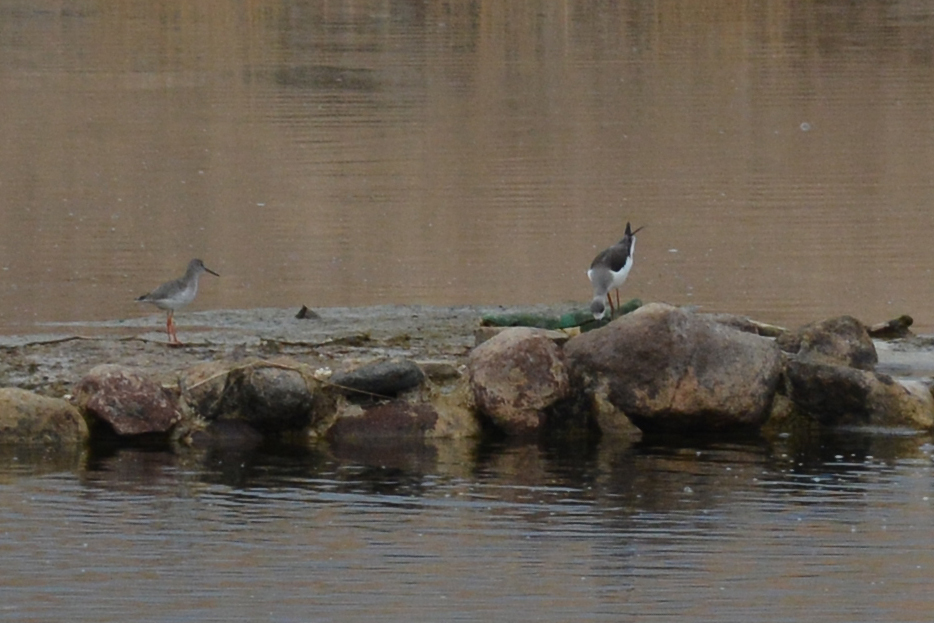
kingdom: Animalia
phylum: Chordata
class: Aves
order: Charadriiformes
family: Scolopacidae
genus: Tringa
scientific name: Tringa erythropus
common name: Spotted redshank
